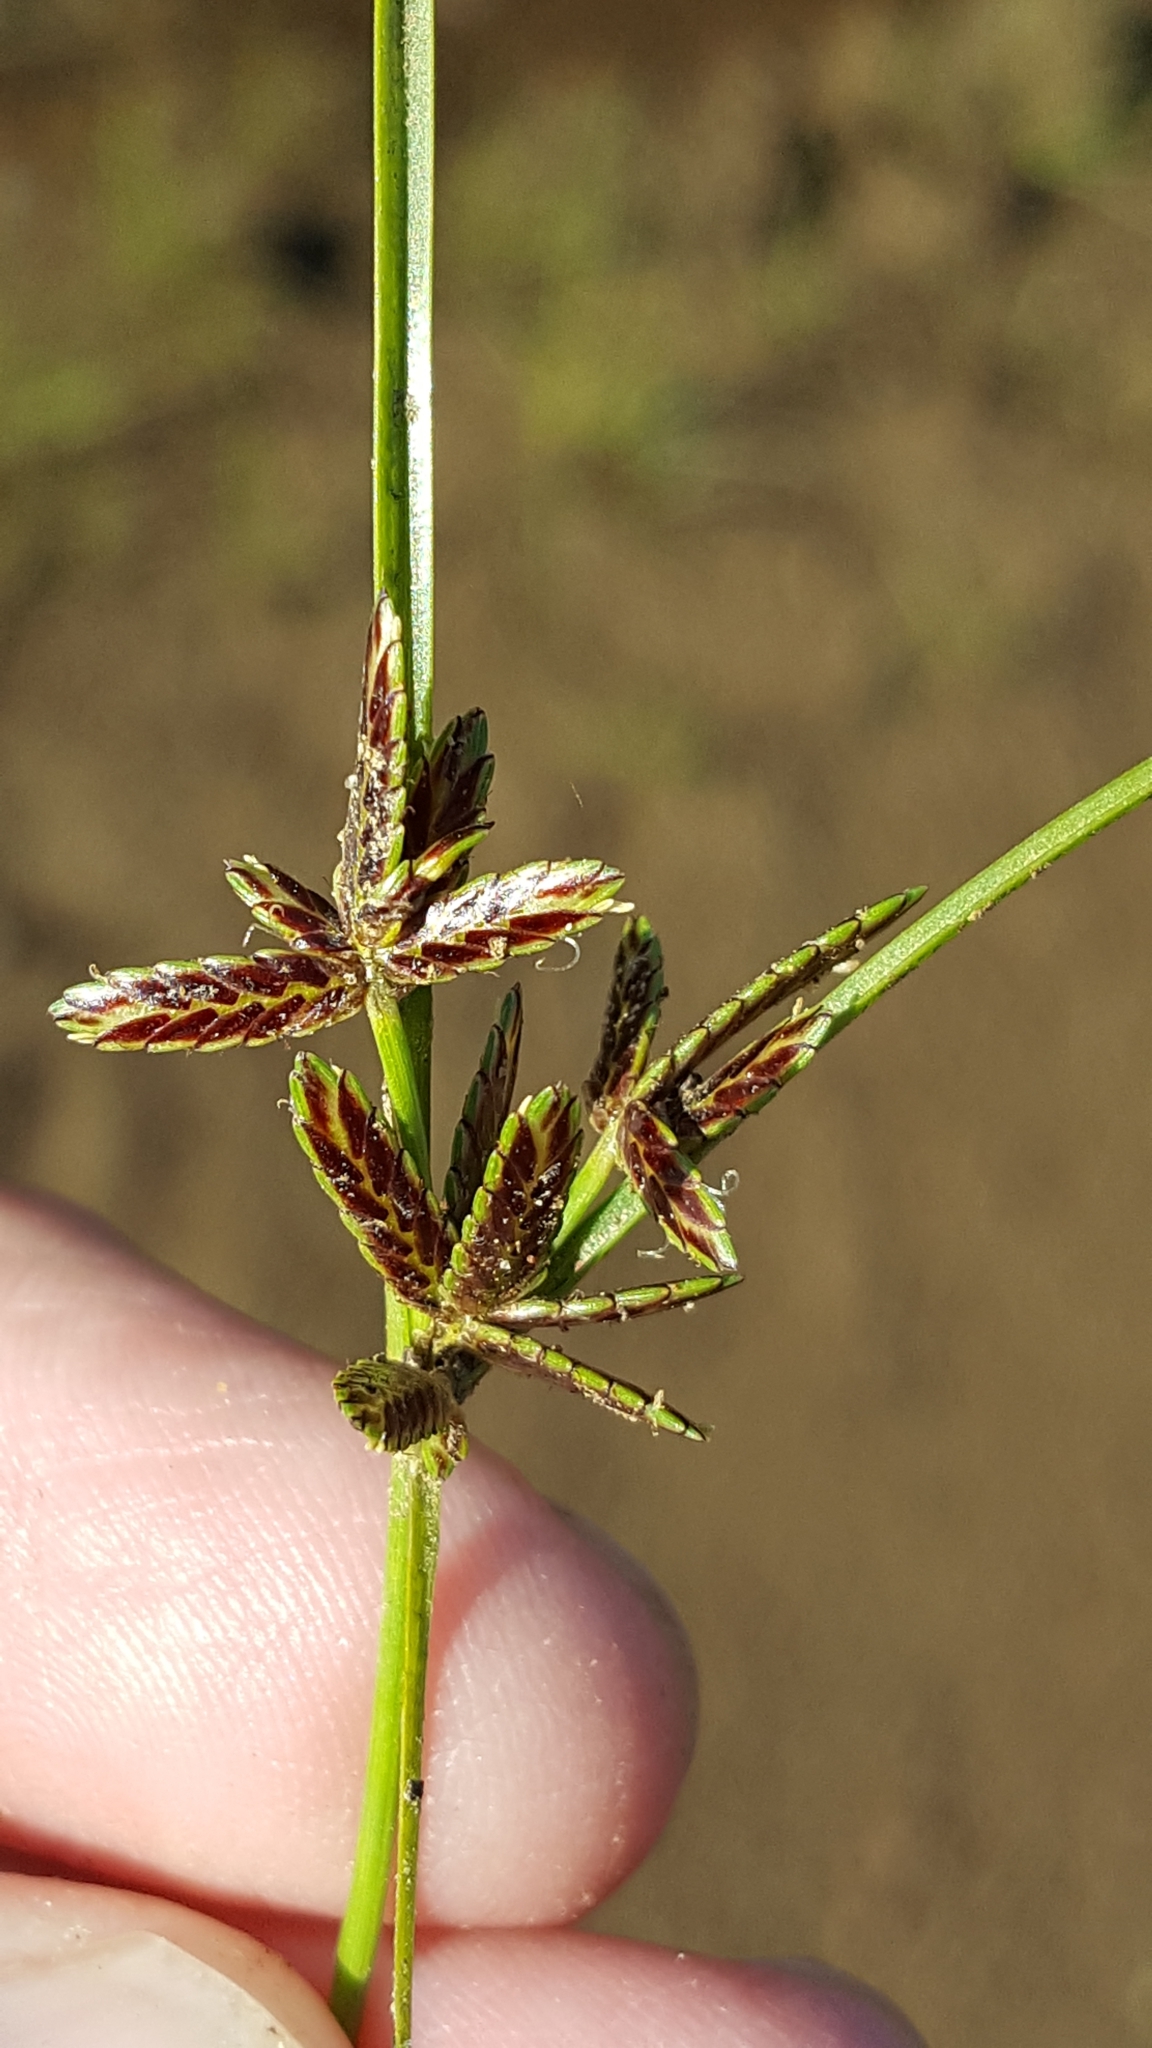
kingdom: Plantae
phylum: Tracheophyta
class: Liliopsida
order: Poales
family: Cyperaceae
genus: Cyperus
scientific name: Cyperus bipartitus
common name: Brook flatsedge
